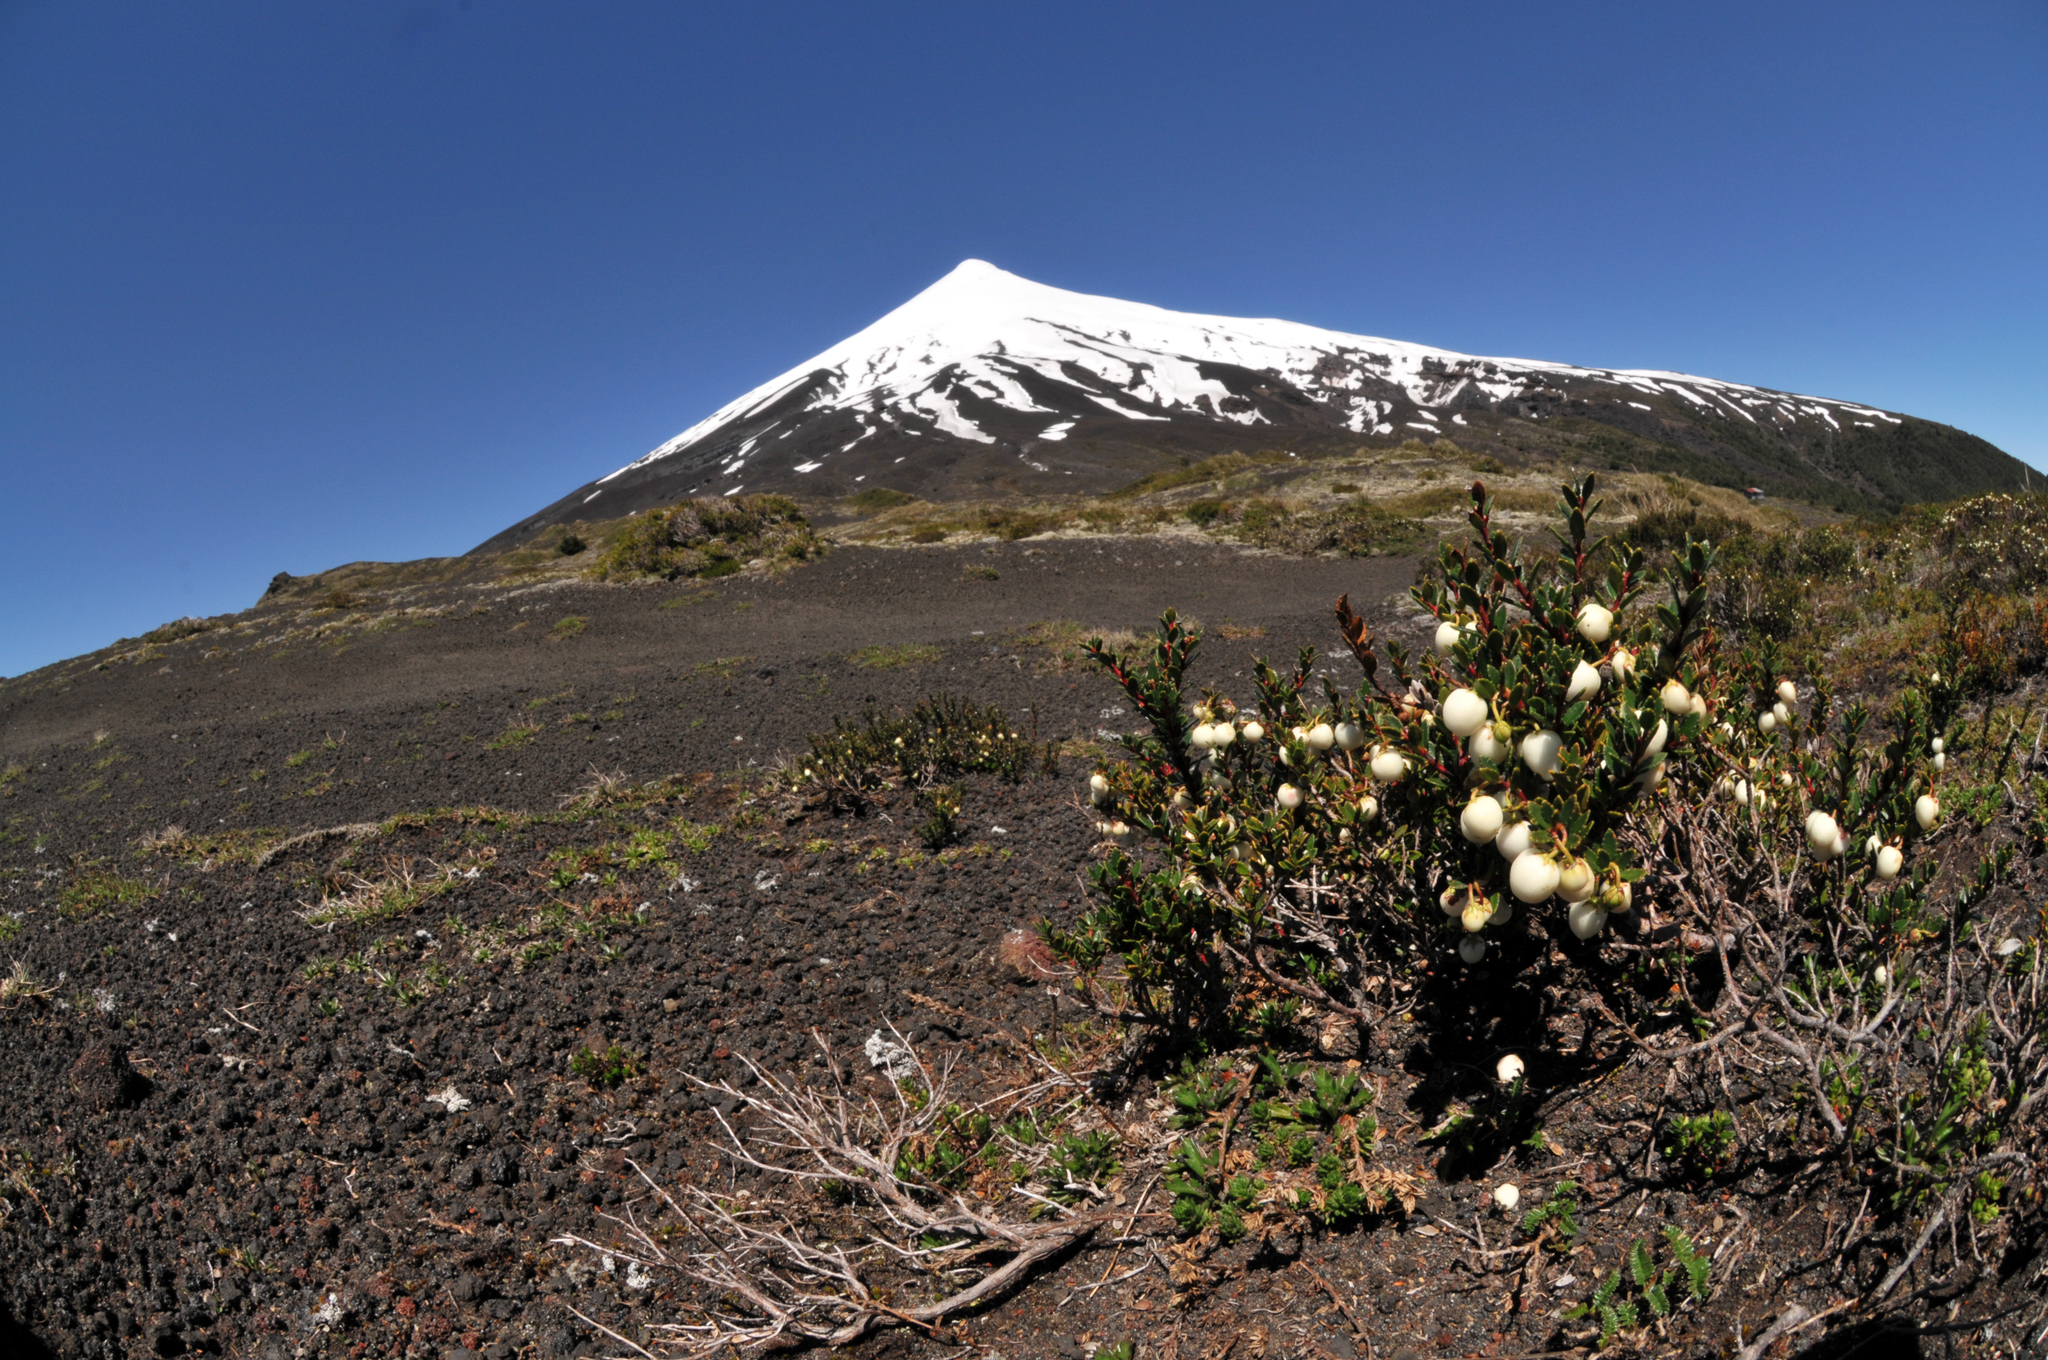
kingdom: Plantae
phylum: Tracheophyta
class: Magnoliopsida
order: Ericales
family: Ericaceae
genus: Gaultheria
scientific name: Gaultheria poeppigii
